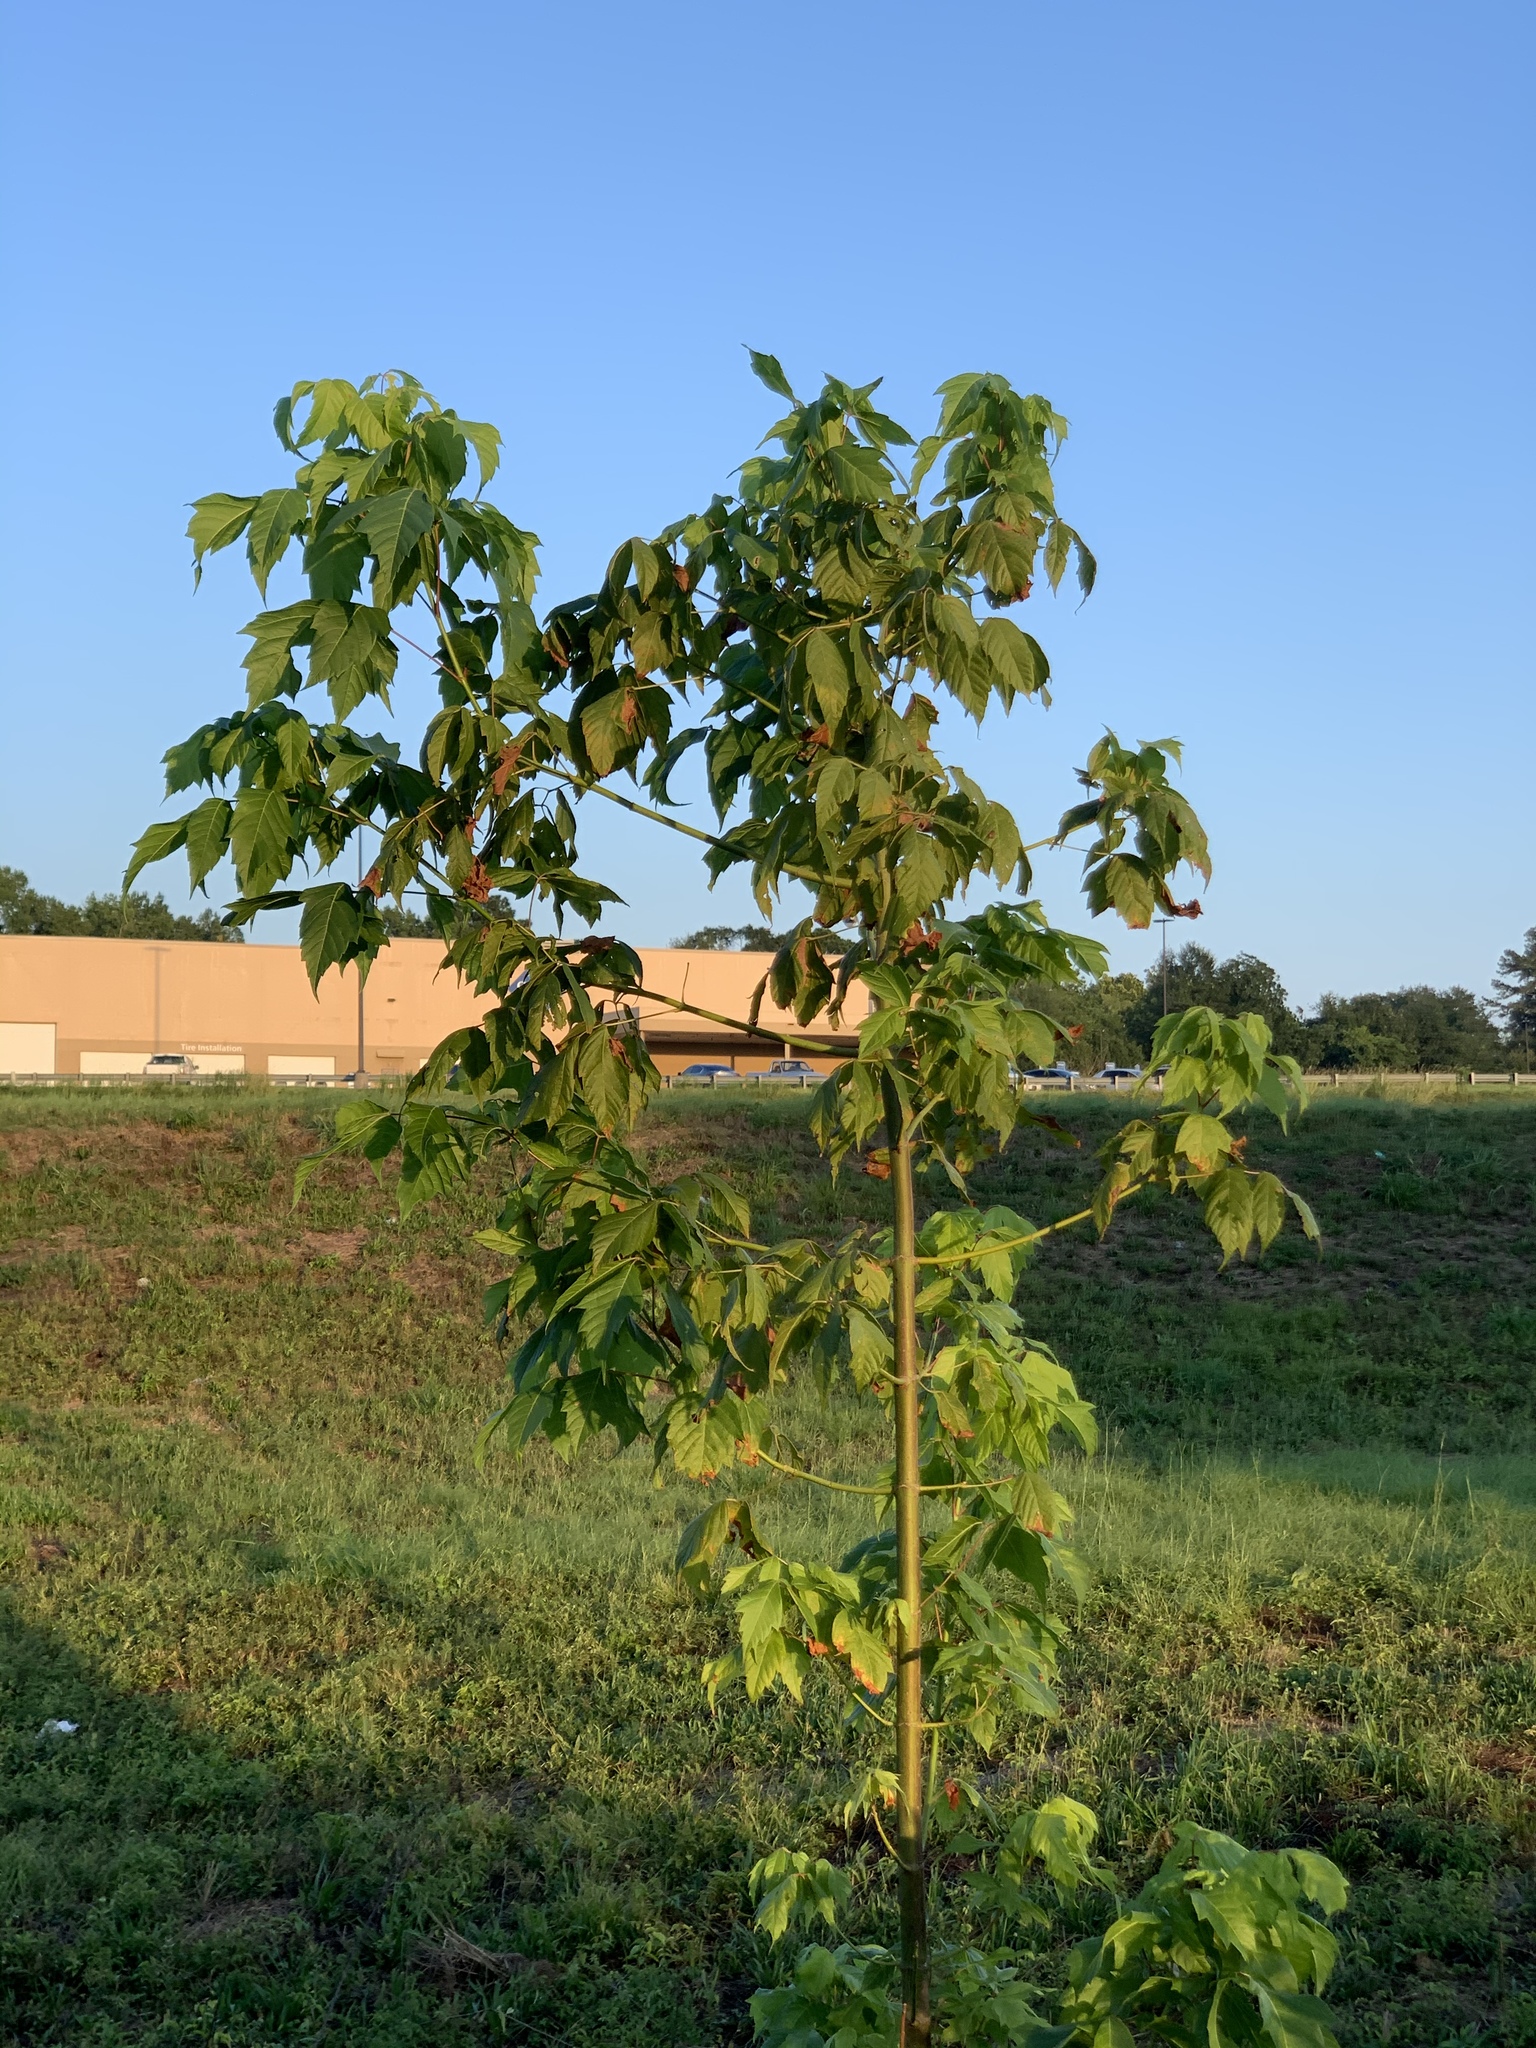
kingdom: Plantae
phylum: Tracheophyta
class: Magnoliopsida
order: Sapindales
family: Sapindaceae
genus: Acer
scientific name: Acer negundo
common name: Ashleaf maple
